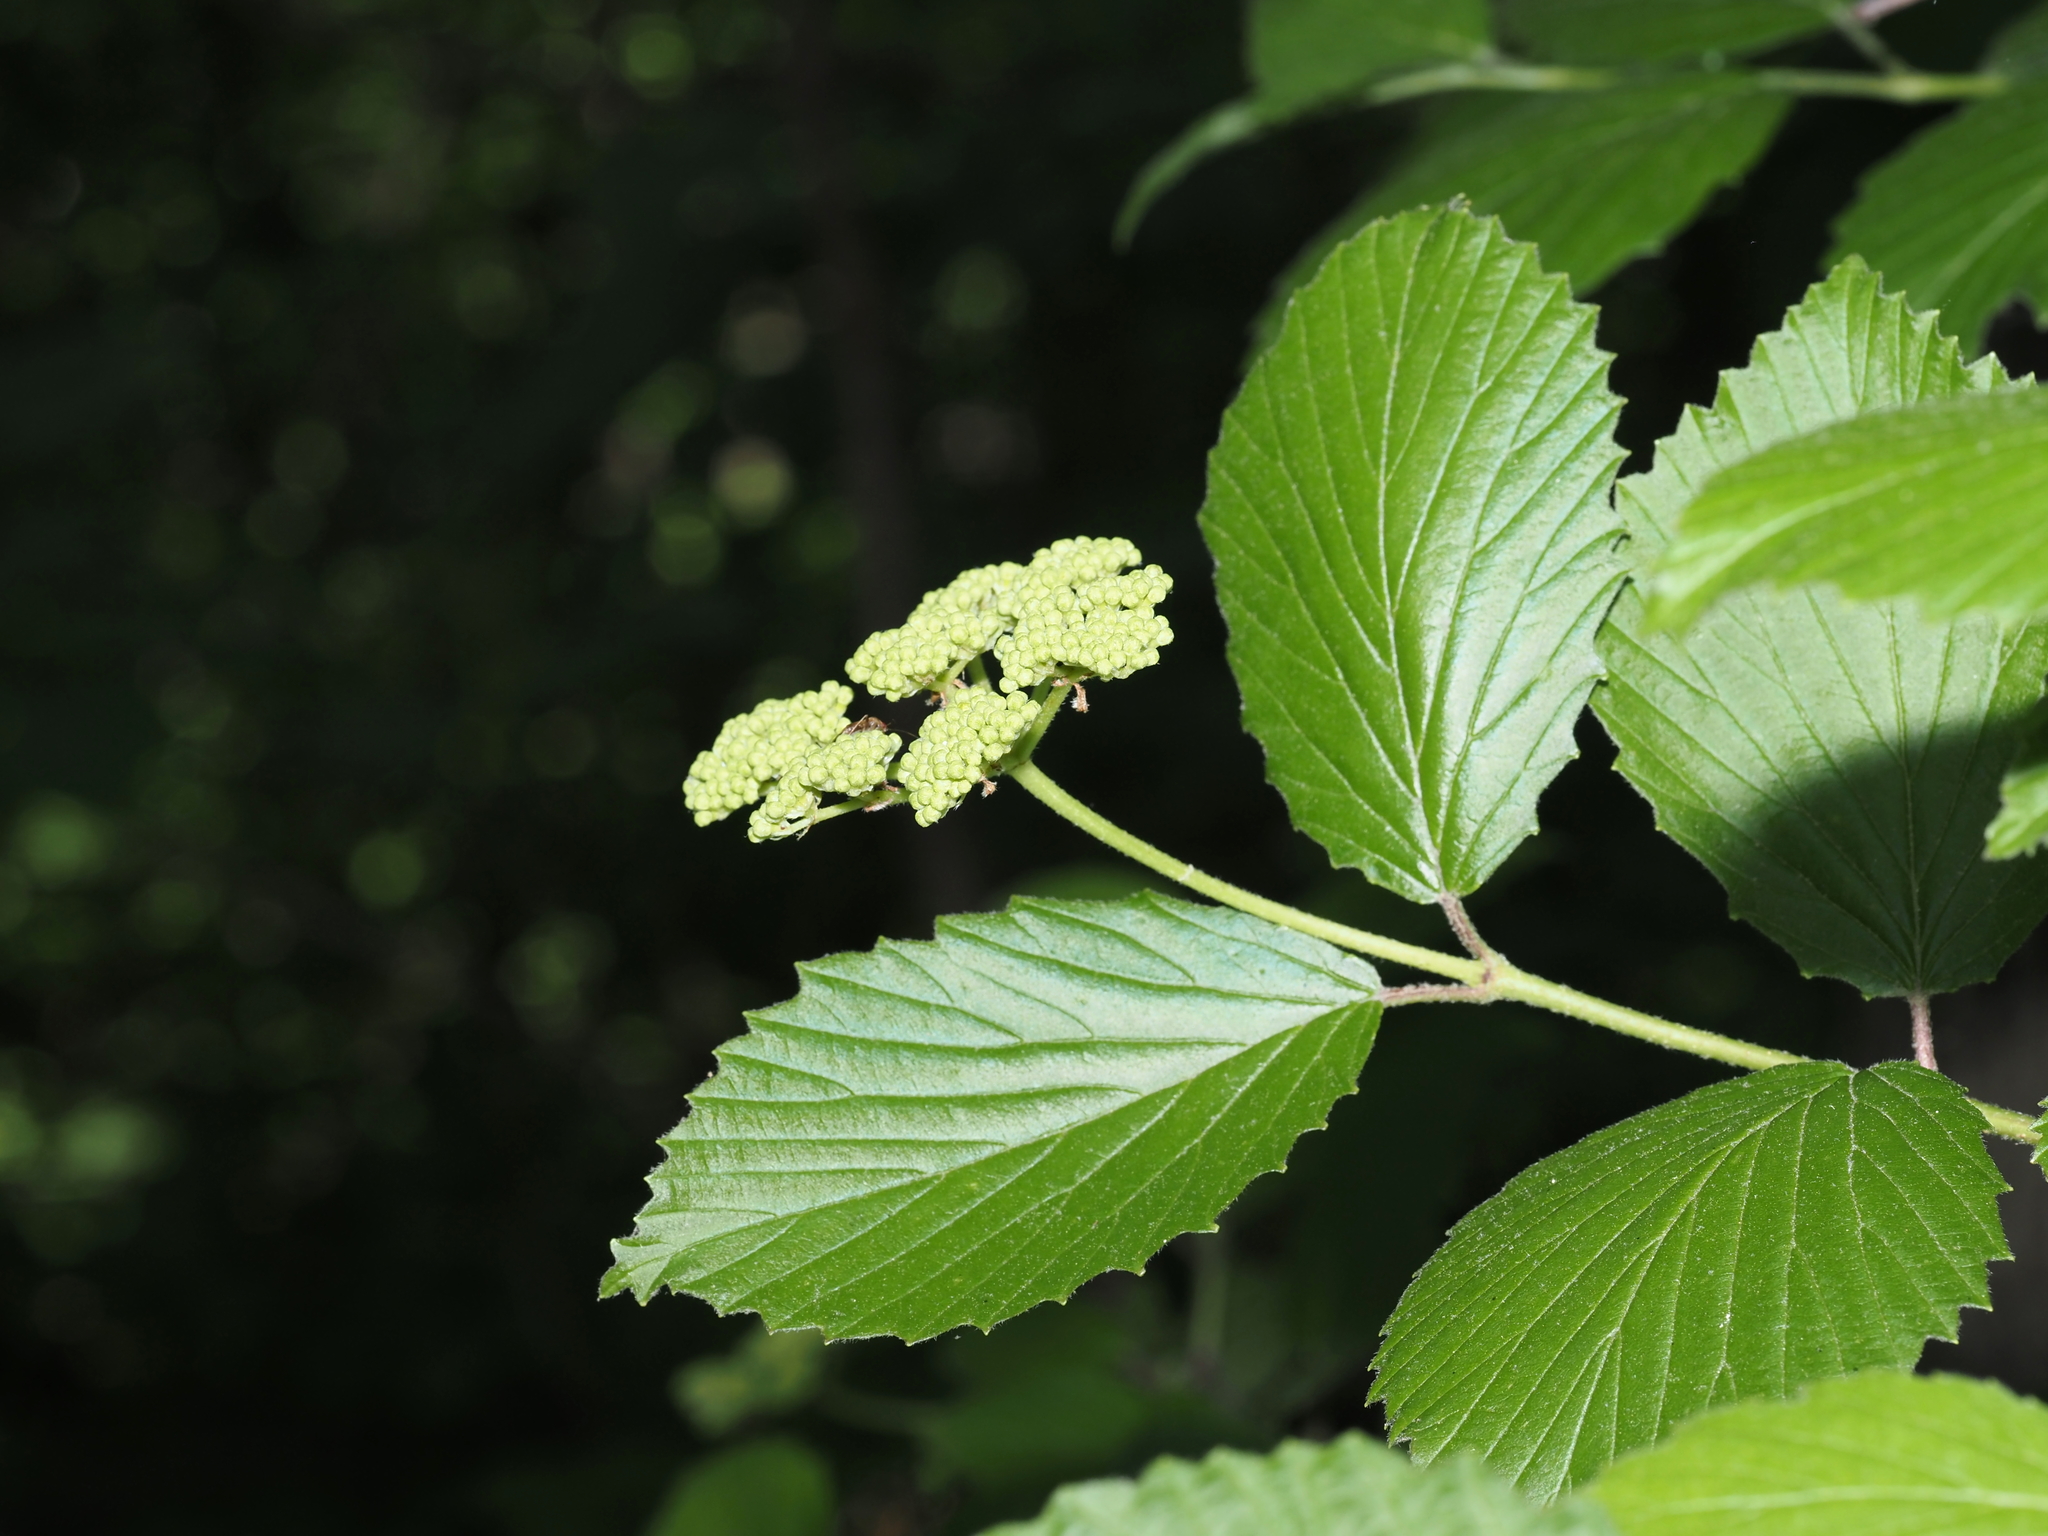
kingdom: Plantae
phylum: Tracheophyta
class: Magnoliopsida
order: Dipsacales
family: Viburnaceae
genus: Viburnum
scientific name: Viburnum dentatum
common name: Arrow-wood
